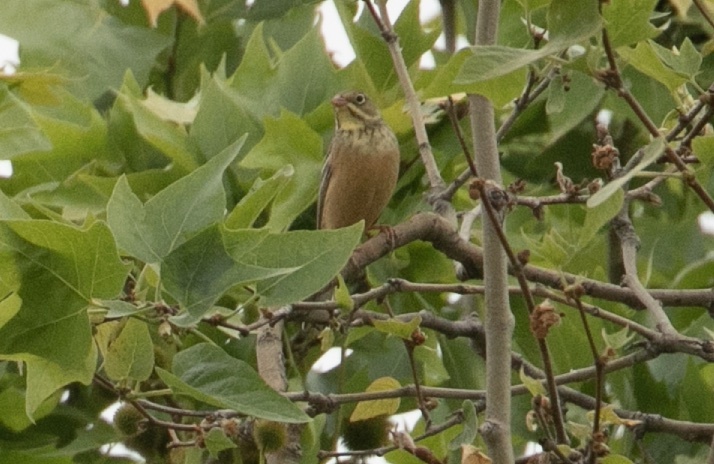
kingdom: Animalia
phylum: Chordata
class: Aves
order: Passeriformes
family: Emberizidae
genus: Emberiza
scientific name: Emberiza hortulana
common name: Ortolan bunting
